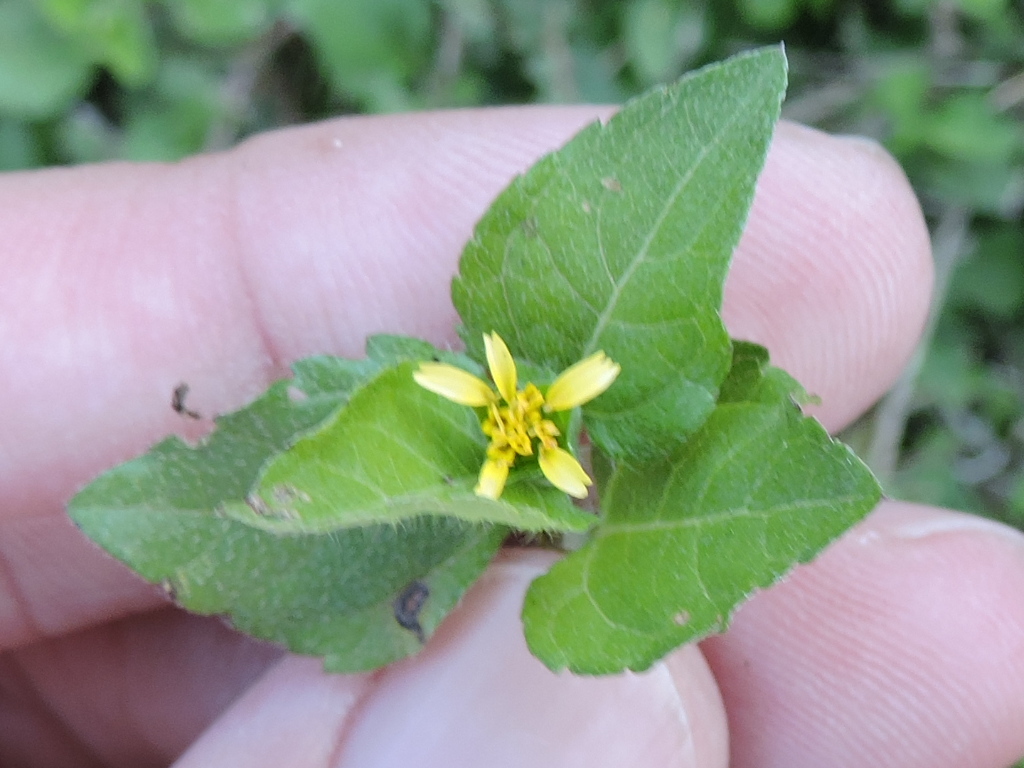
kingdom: Plantae
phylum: Tracheophyta
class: Magnoliopsida
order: Asterales
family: Asteraceae
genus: Calyptocarpus
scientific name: Calyptocarpus vialis
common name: Straggler daisy
